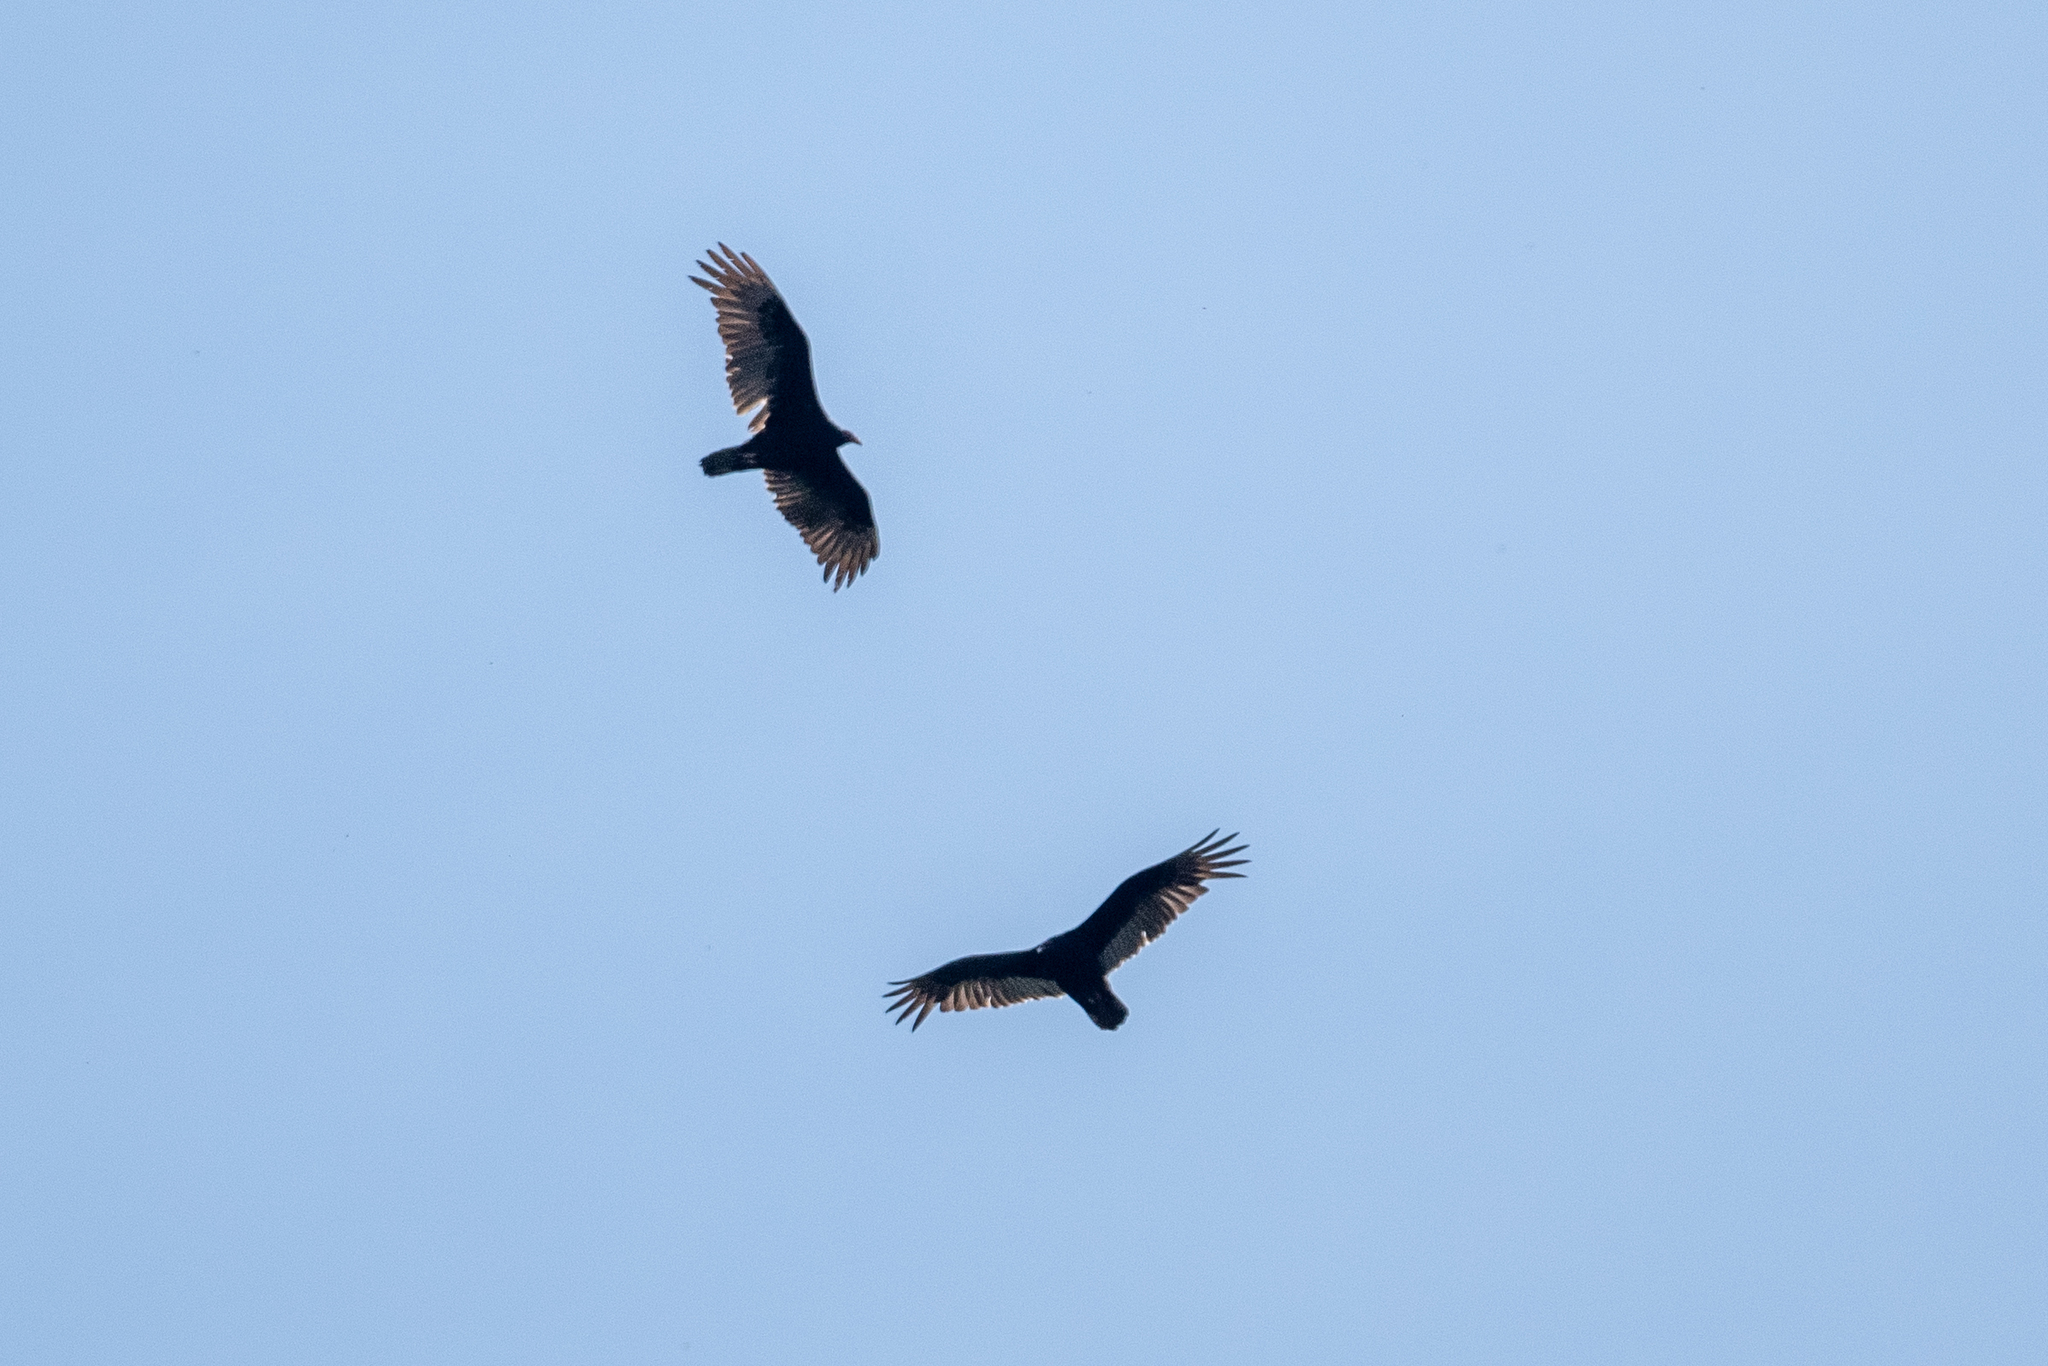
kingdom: Animalia
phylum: Chordata
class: Aves
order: Accipitriformes
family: Cathartidae
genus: Cathartes
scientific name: Cathartes aura
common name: Turkey vulture
